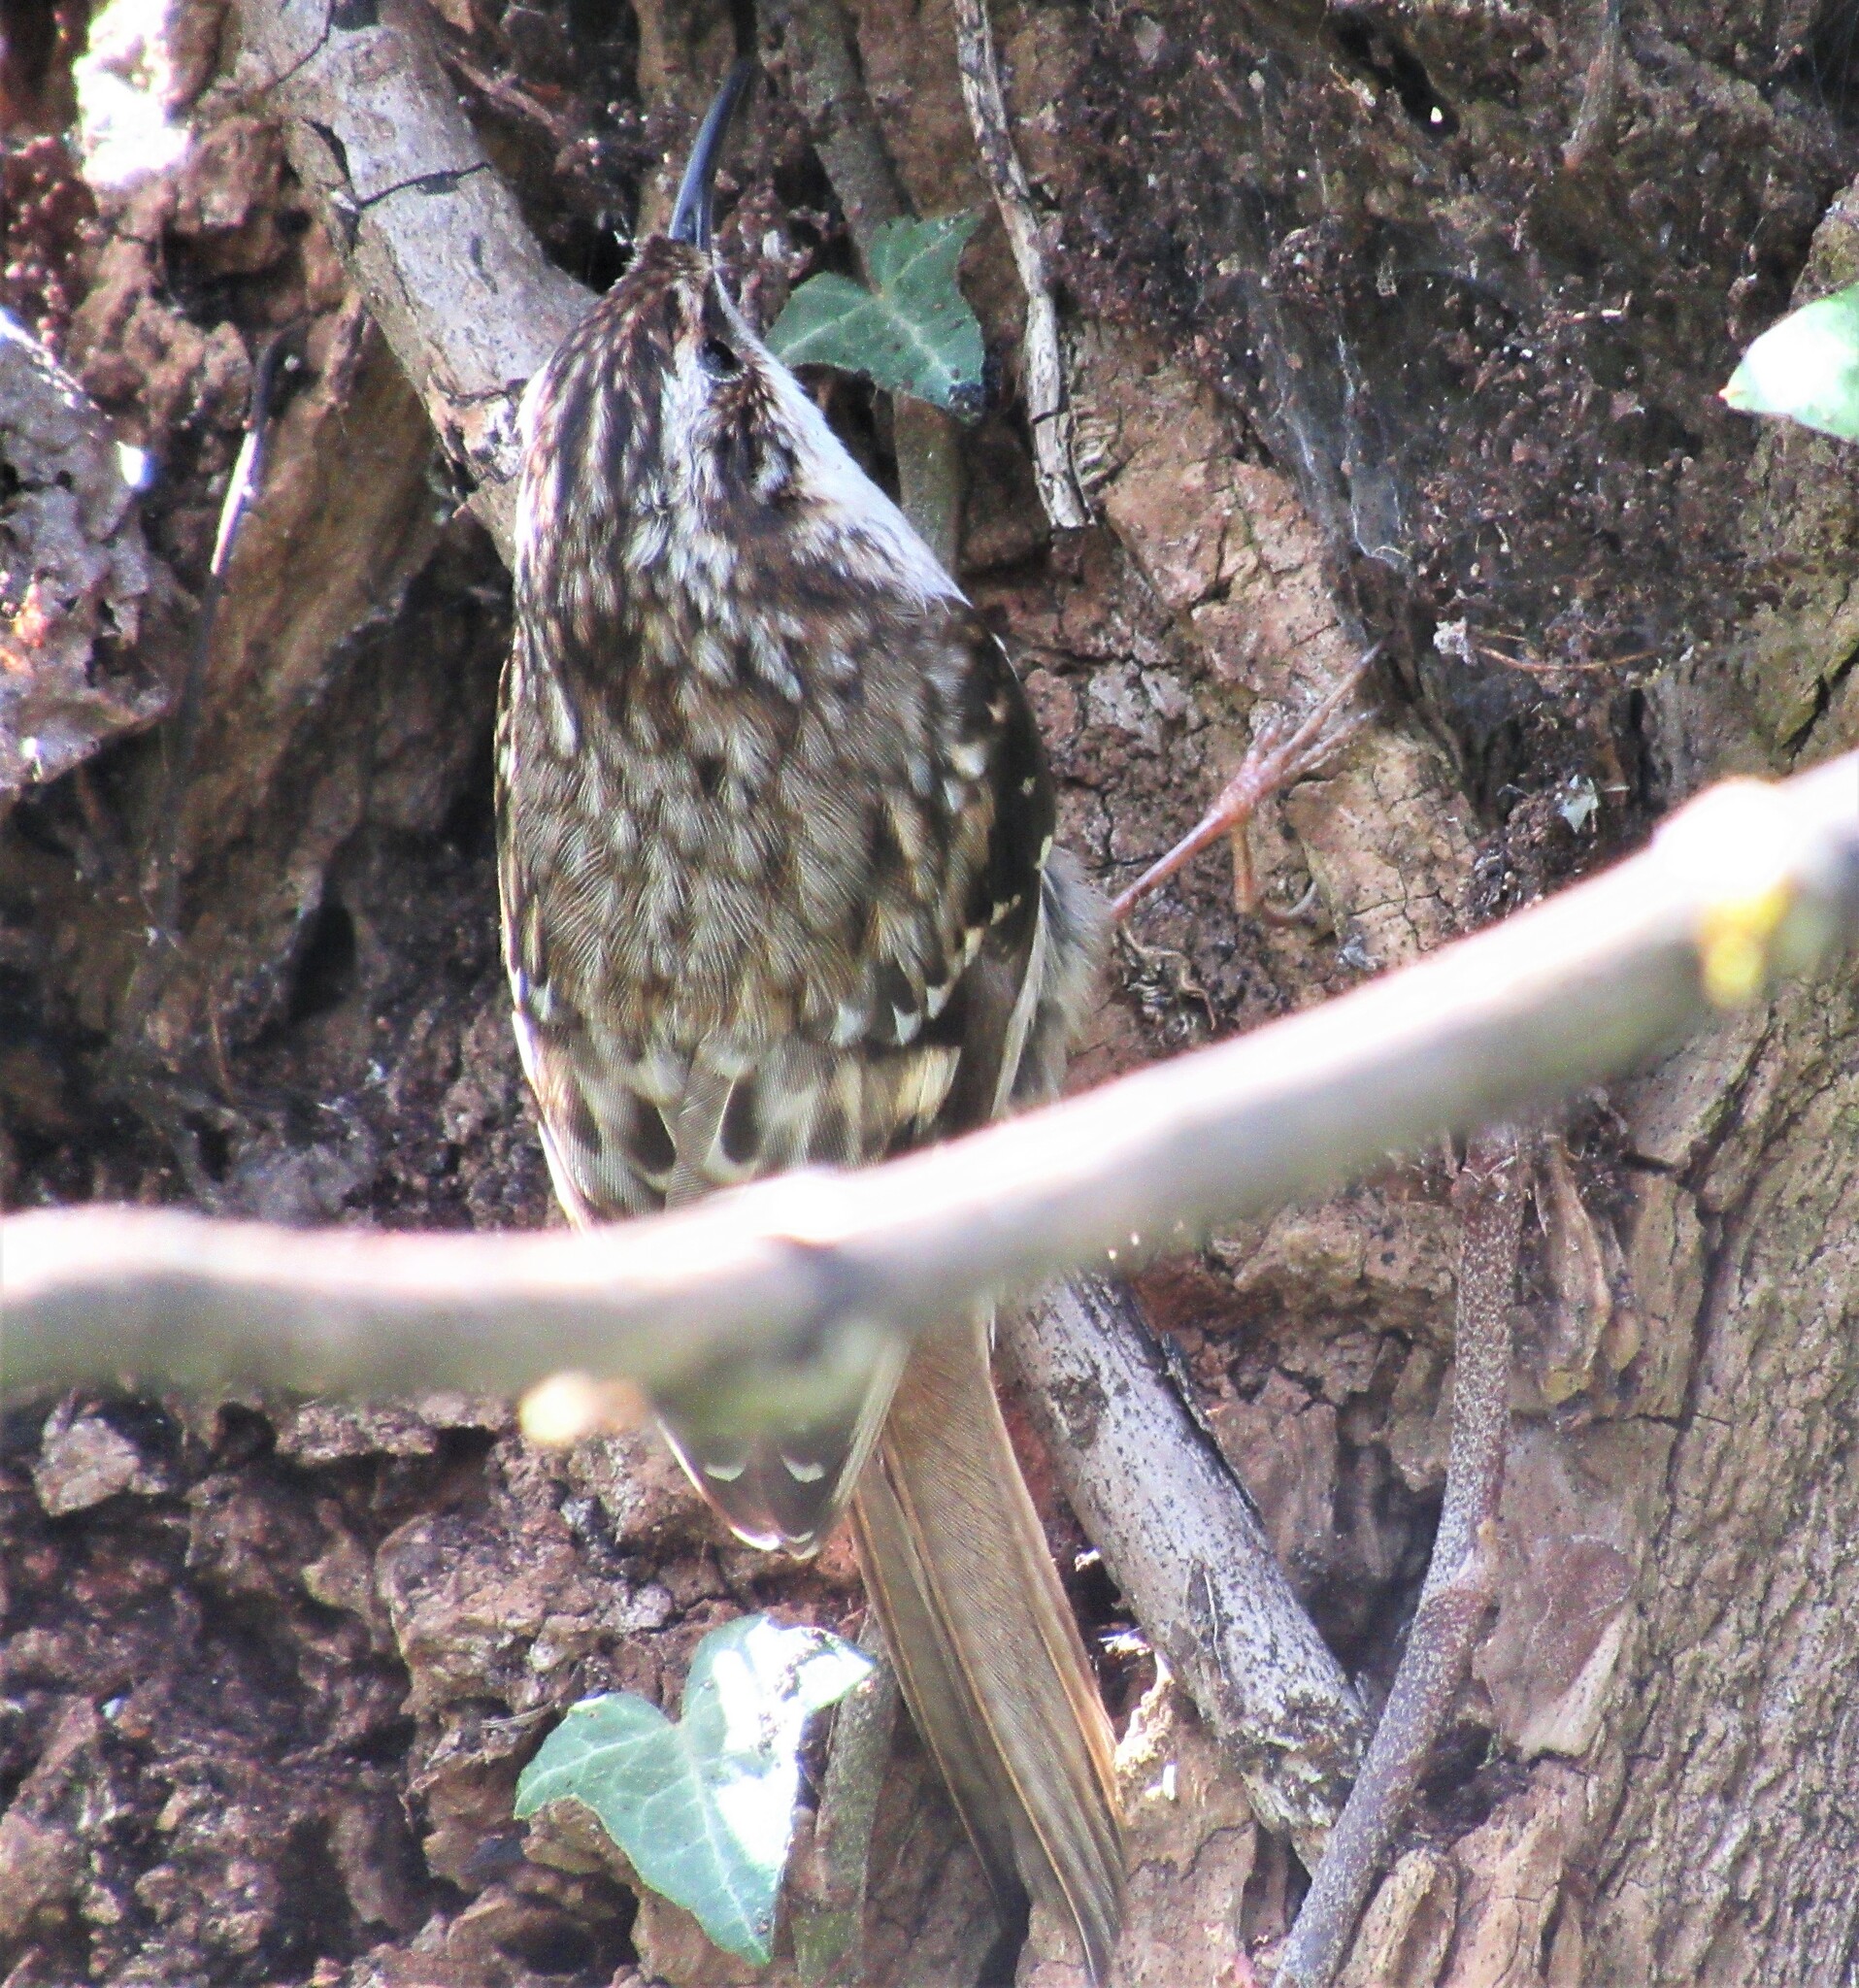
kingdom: Animalia
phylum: Chordata
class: Aves
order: Passeriformes
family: Certhiidae
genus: Certhia
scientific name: Certhia americana
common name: Brown creeper
